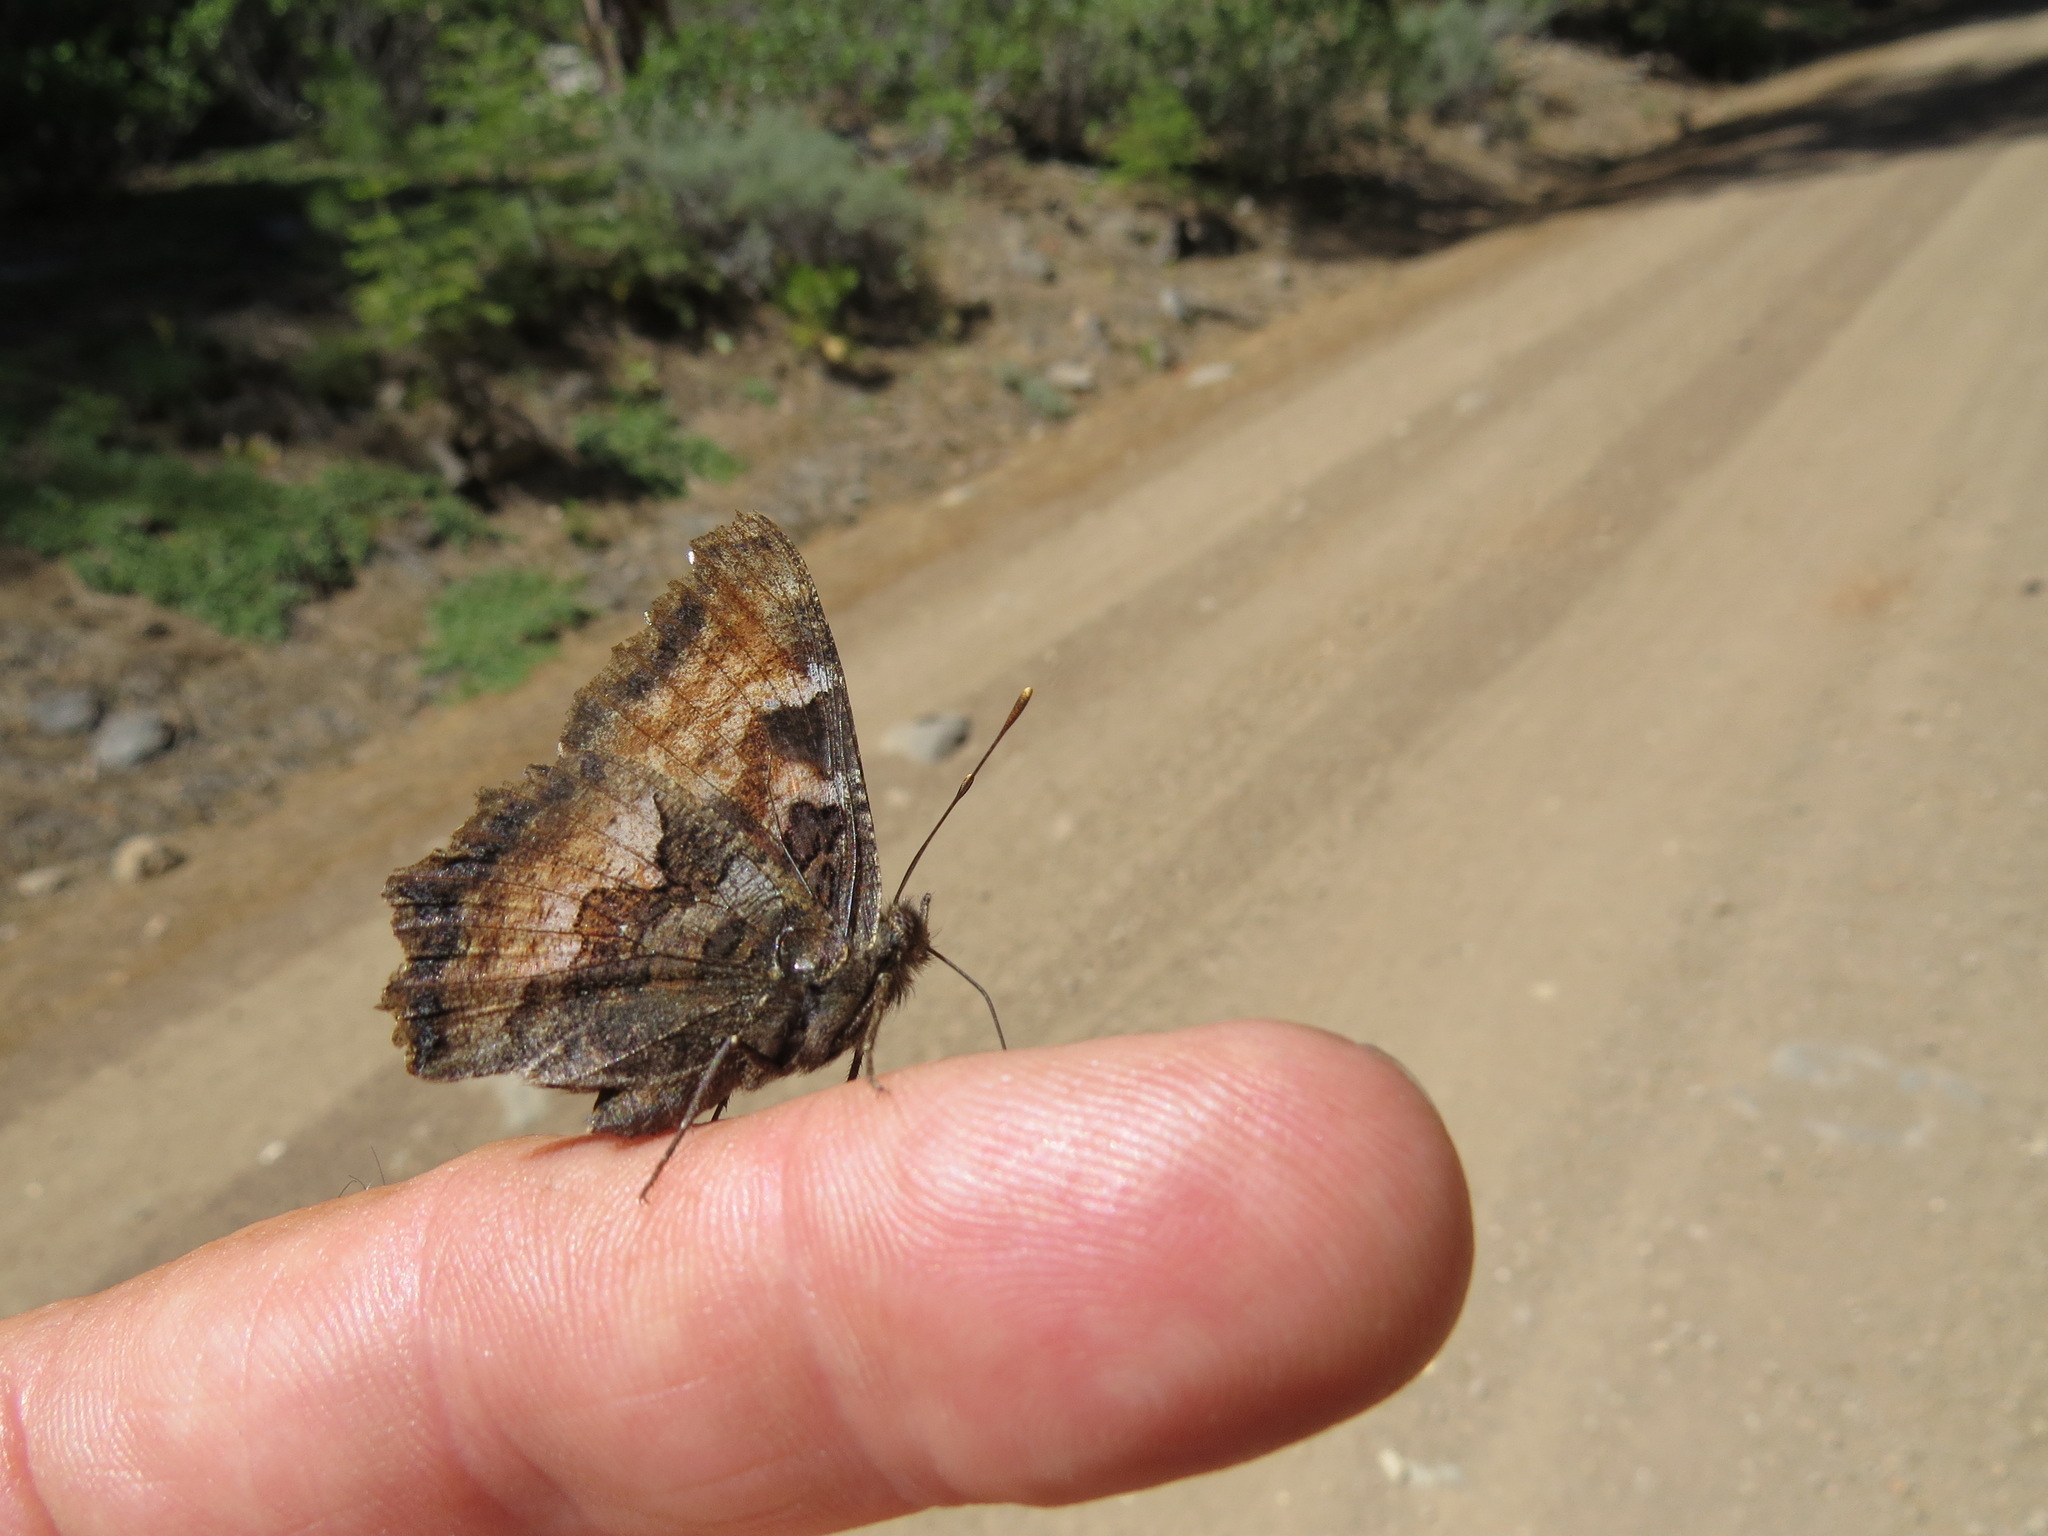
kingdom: Animalia
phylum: Arthropoda
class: Insecta
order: Lepidoptera
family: Nymphalidae
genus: Nymphalis
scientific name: Nymphalis californica
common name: California tortoiseshell
